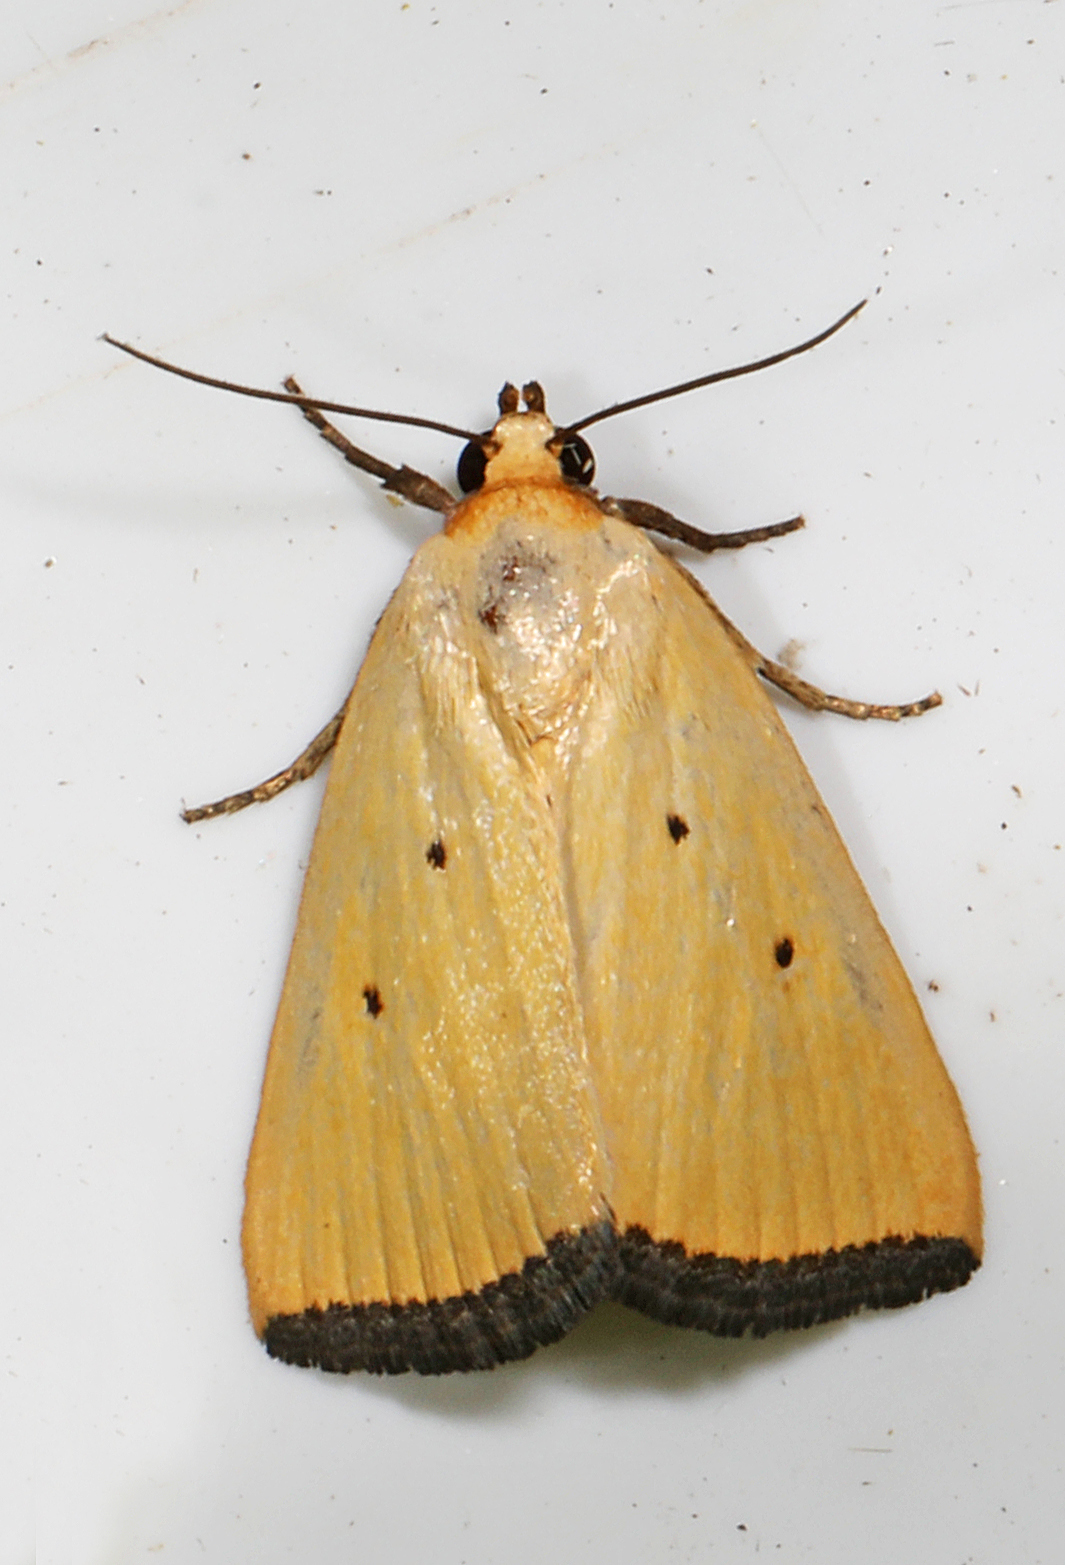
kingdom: Animalia
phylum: Arthropoda
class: Insecta
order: Lepidoptera
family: Noctuidae
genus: Marimatha
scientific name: Marimatha nigrofimbria
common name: Black-bordered lemon moth
